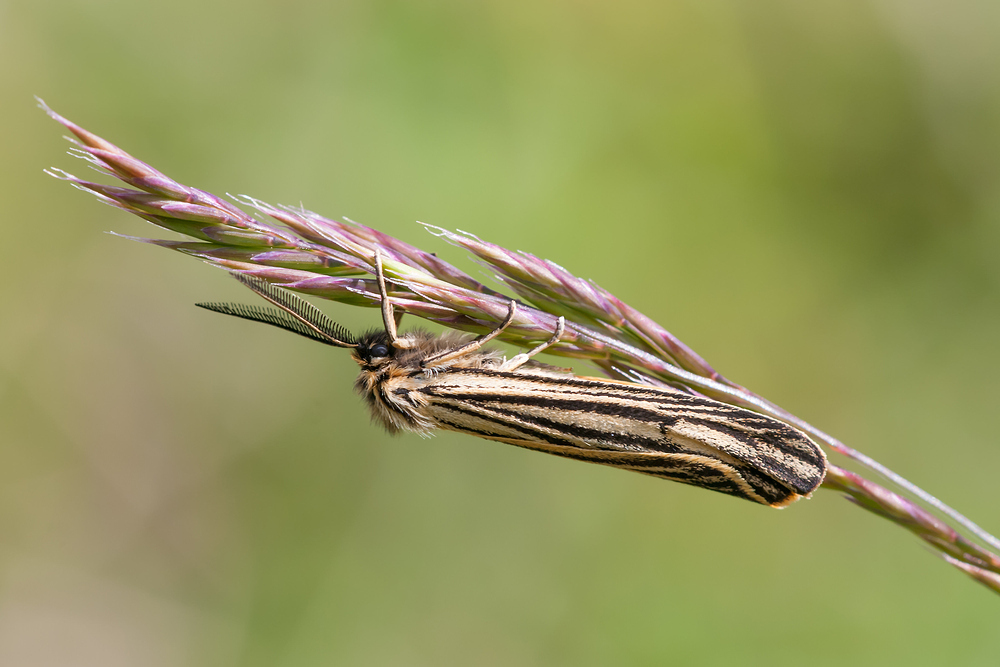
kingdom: Animalia
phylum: Arthropoda
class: Insecta
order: Lepidoptera
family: Erebidae
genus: Coscinia
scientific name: Coscinia Spiris striata
